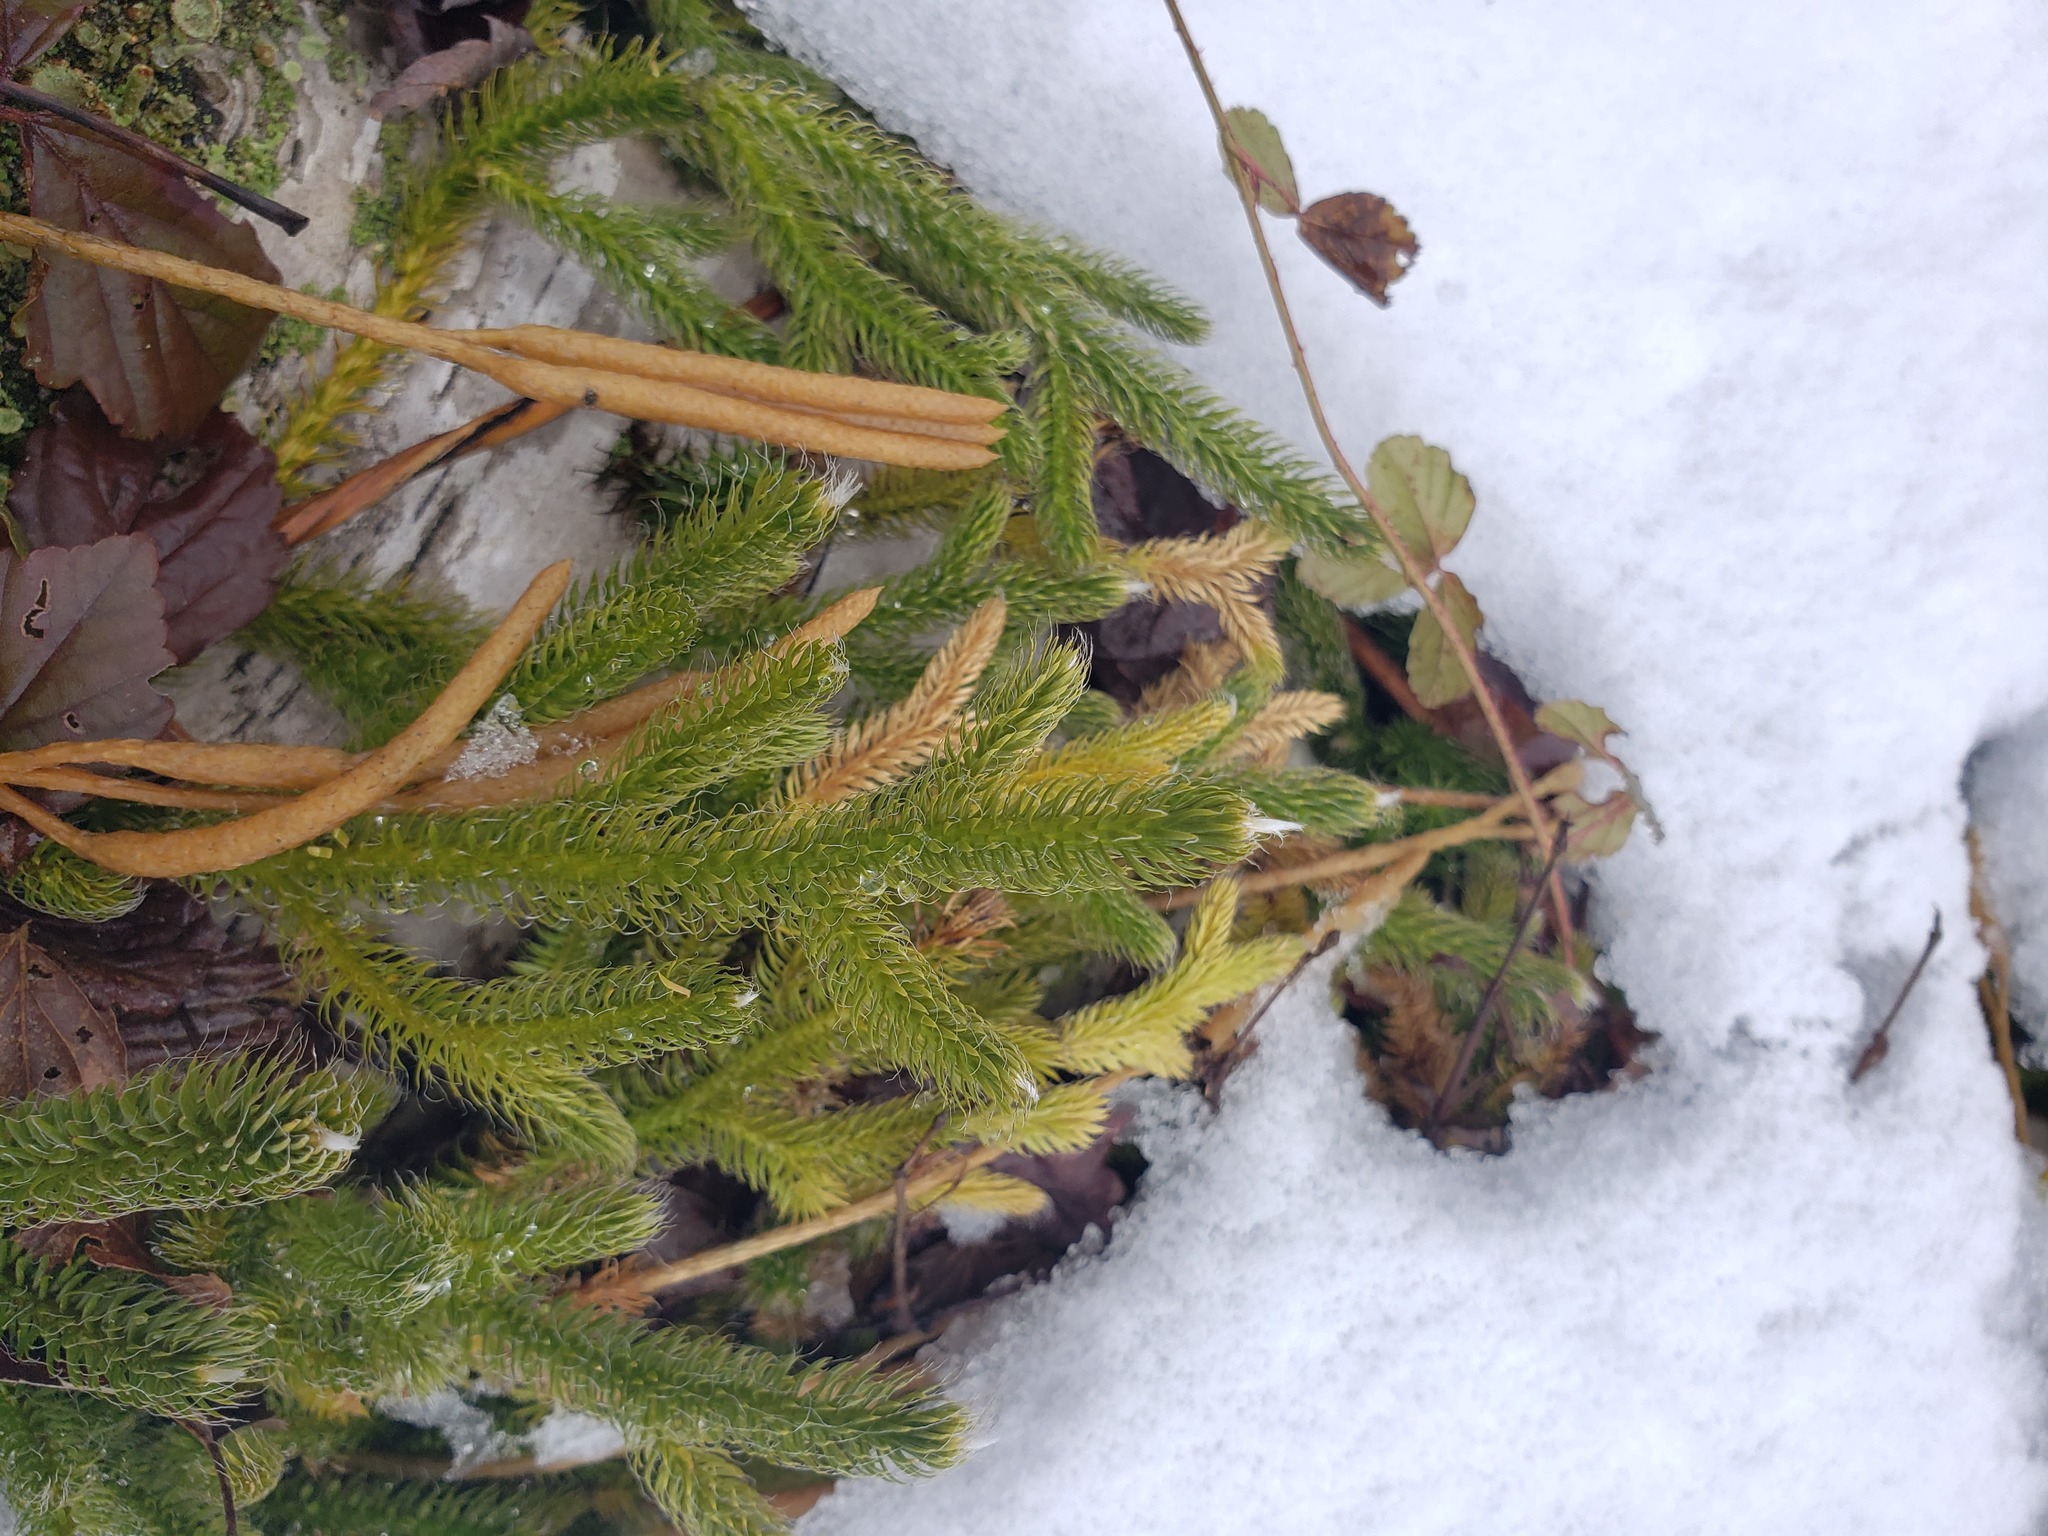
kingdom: Plantae
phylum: Tracheophyta
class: Lycopodiopsida
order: Lycopodiales
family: Lycopodiaceae
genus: Lycopodium
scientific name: Lycopodium clavatum
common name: Stag's-horn clubmoss
